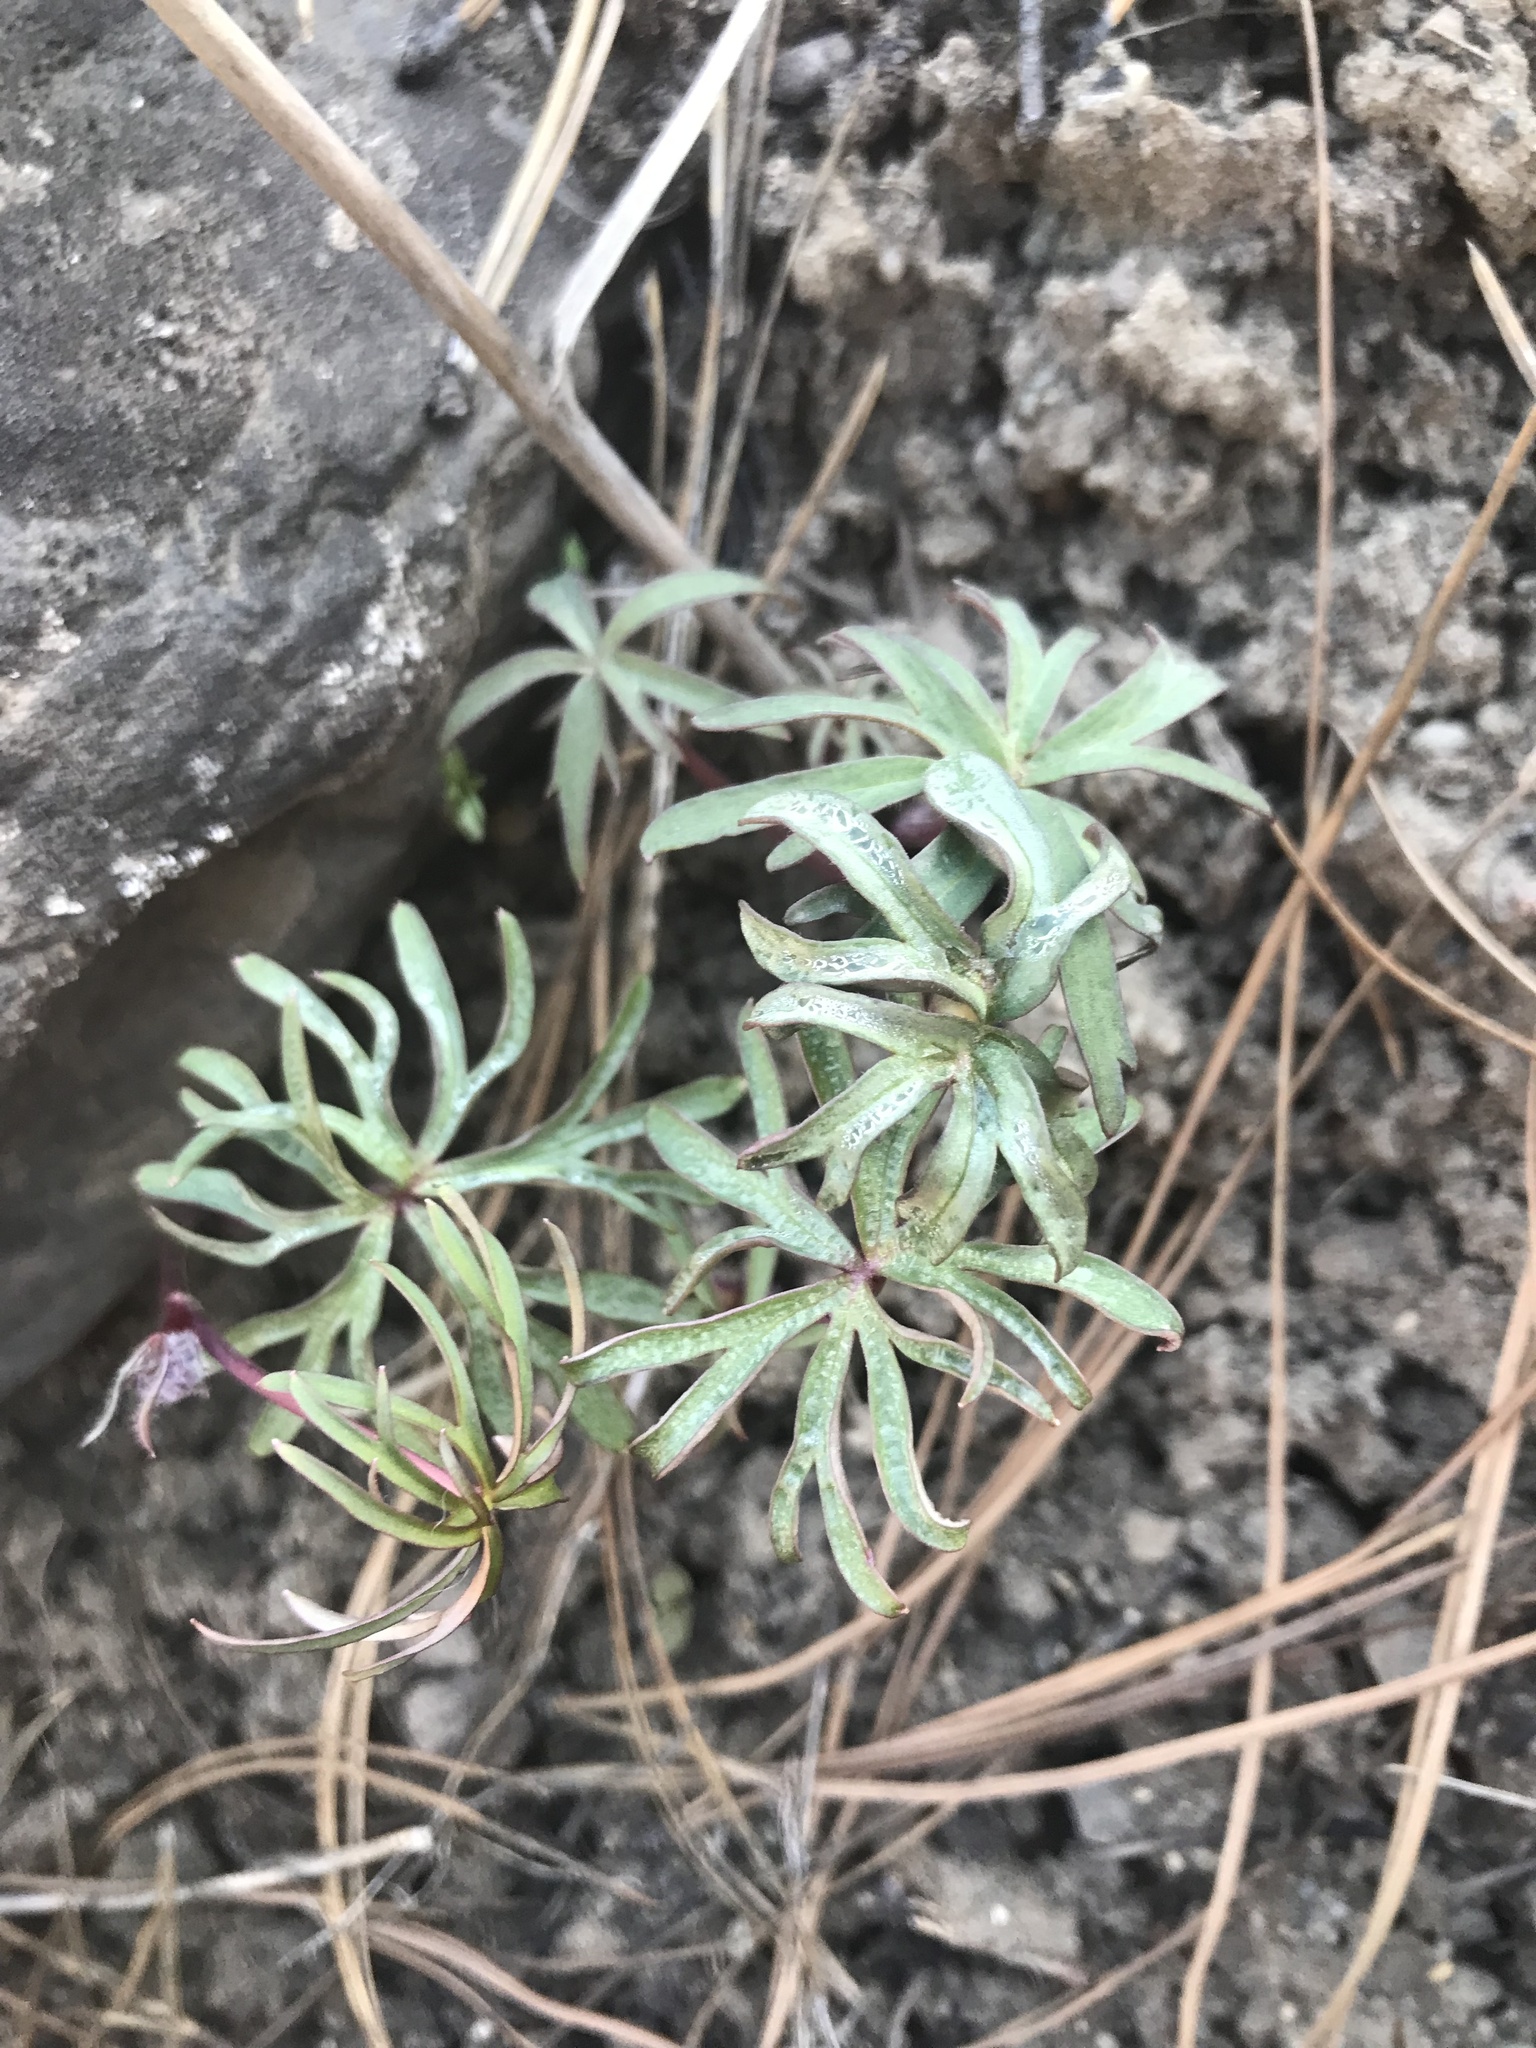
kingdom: Plantae
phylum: Tracheophyta
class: Magnoliopsida
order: Ranunculales
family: Ranunculaceae
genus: Delphinium
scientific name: Delphinium nuttallianum
